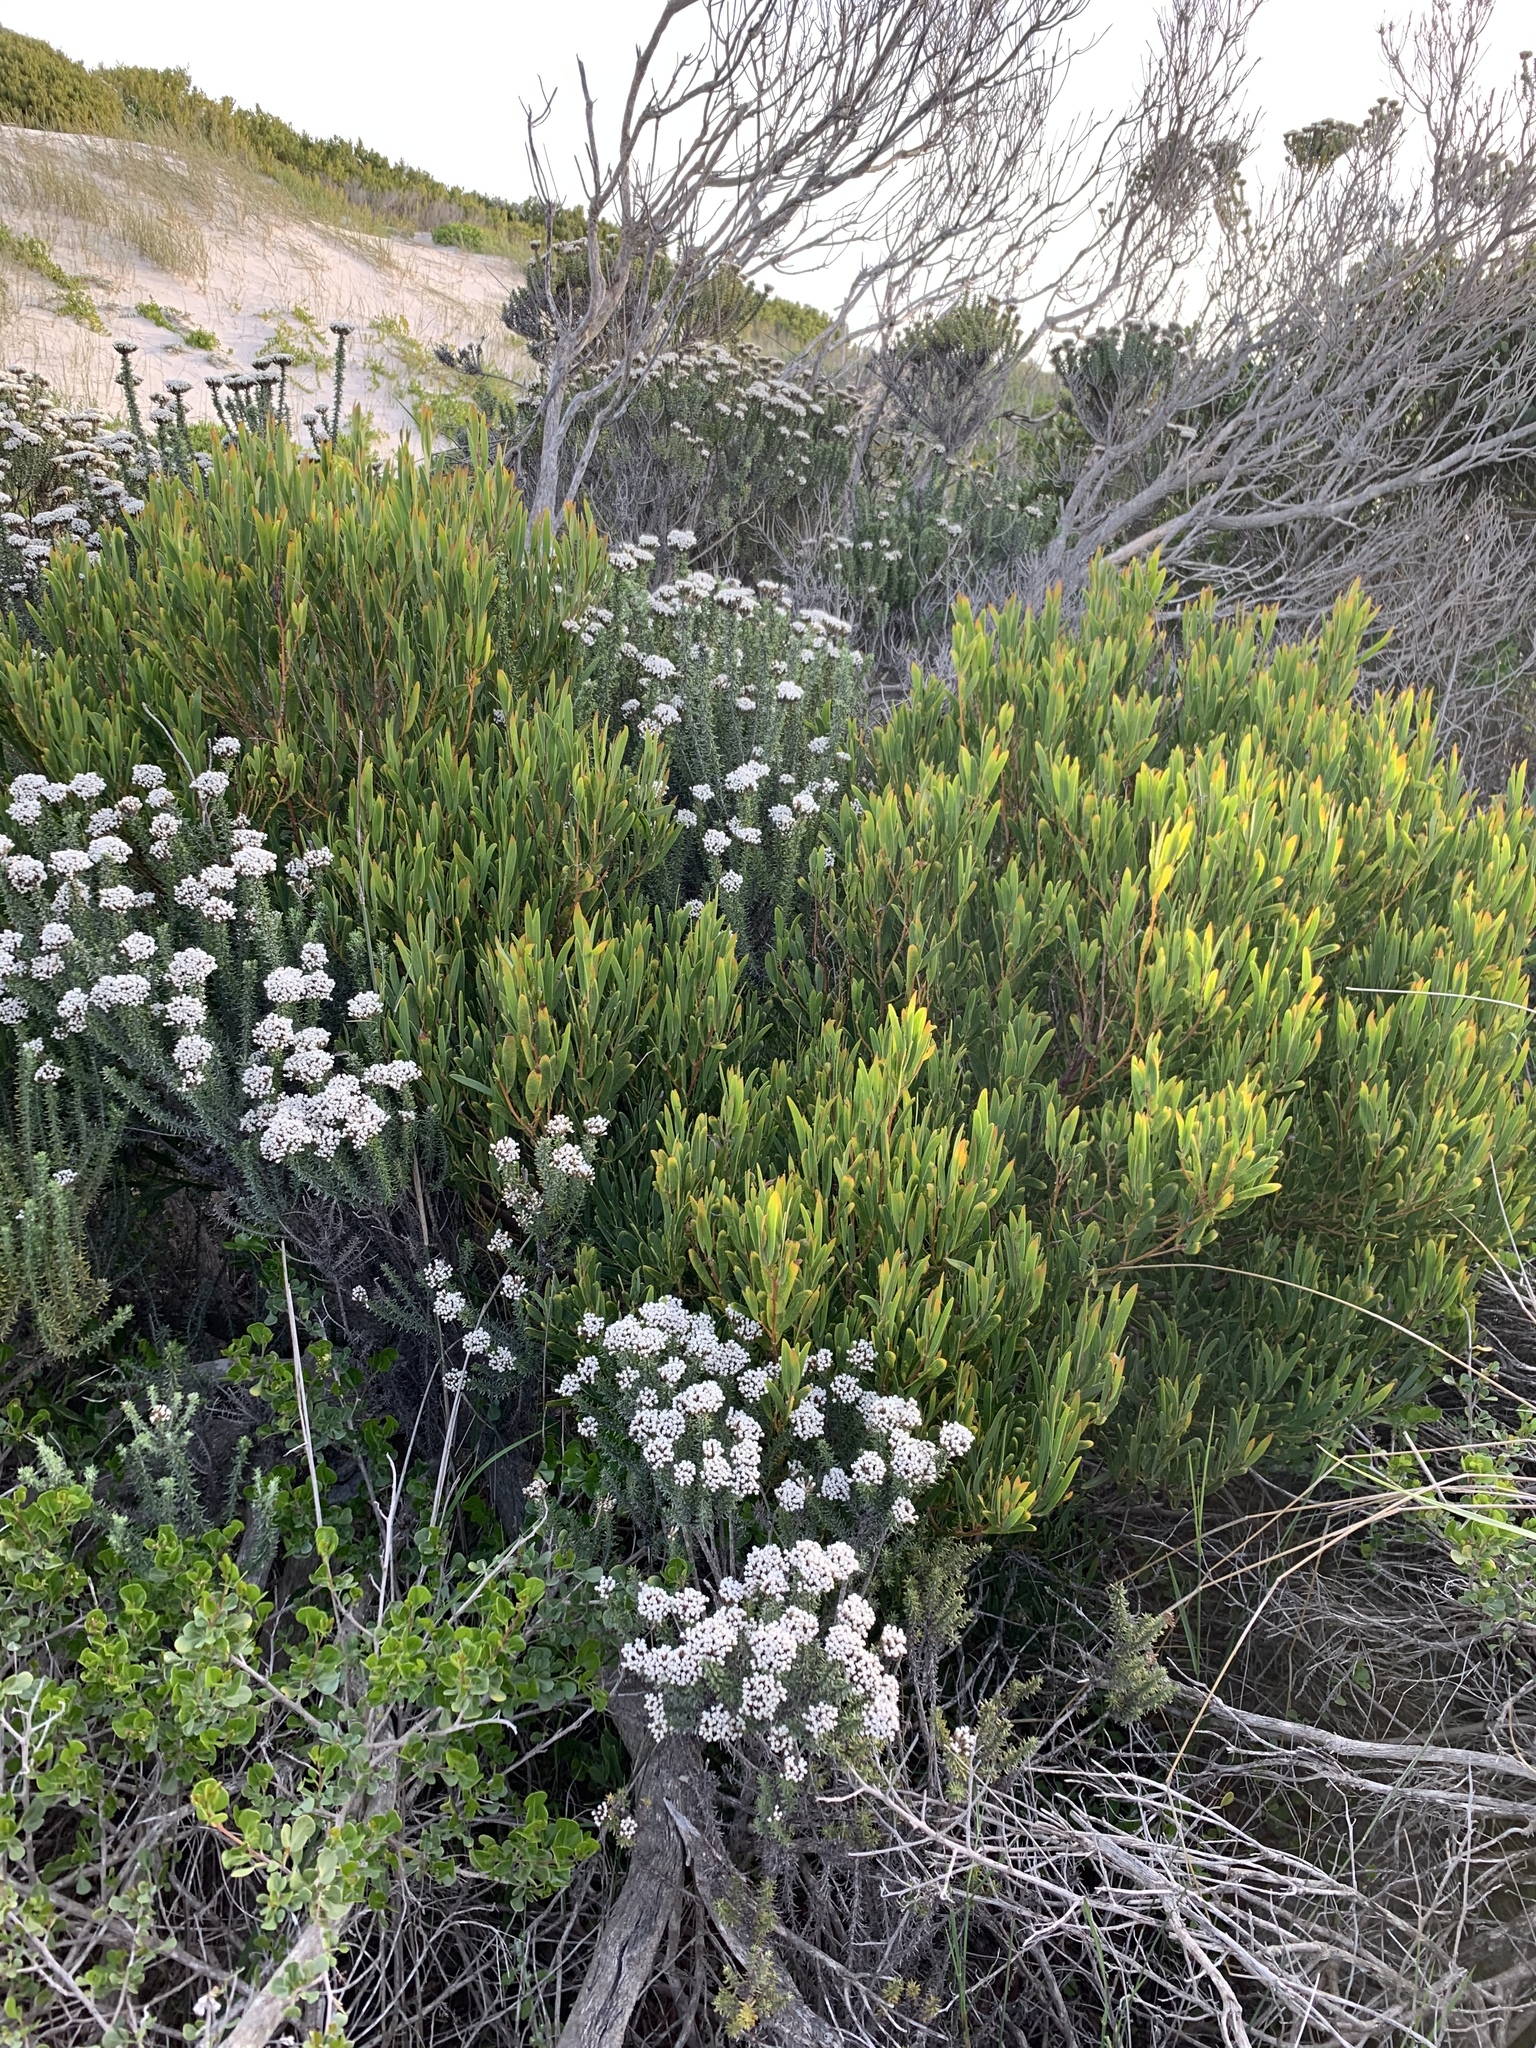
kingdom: Plantae
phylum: Tracheophyta
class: Magnoliopsida
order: Fabales
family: Fabaceae
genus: Acacia
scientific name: Acacia cyclops
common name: Coastal wattle
